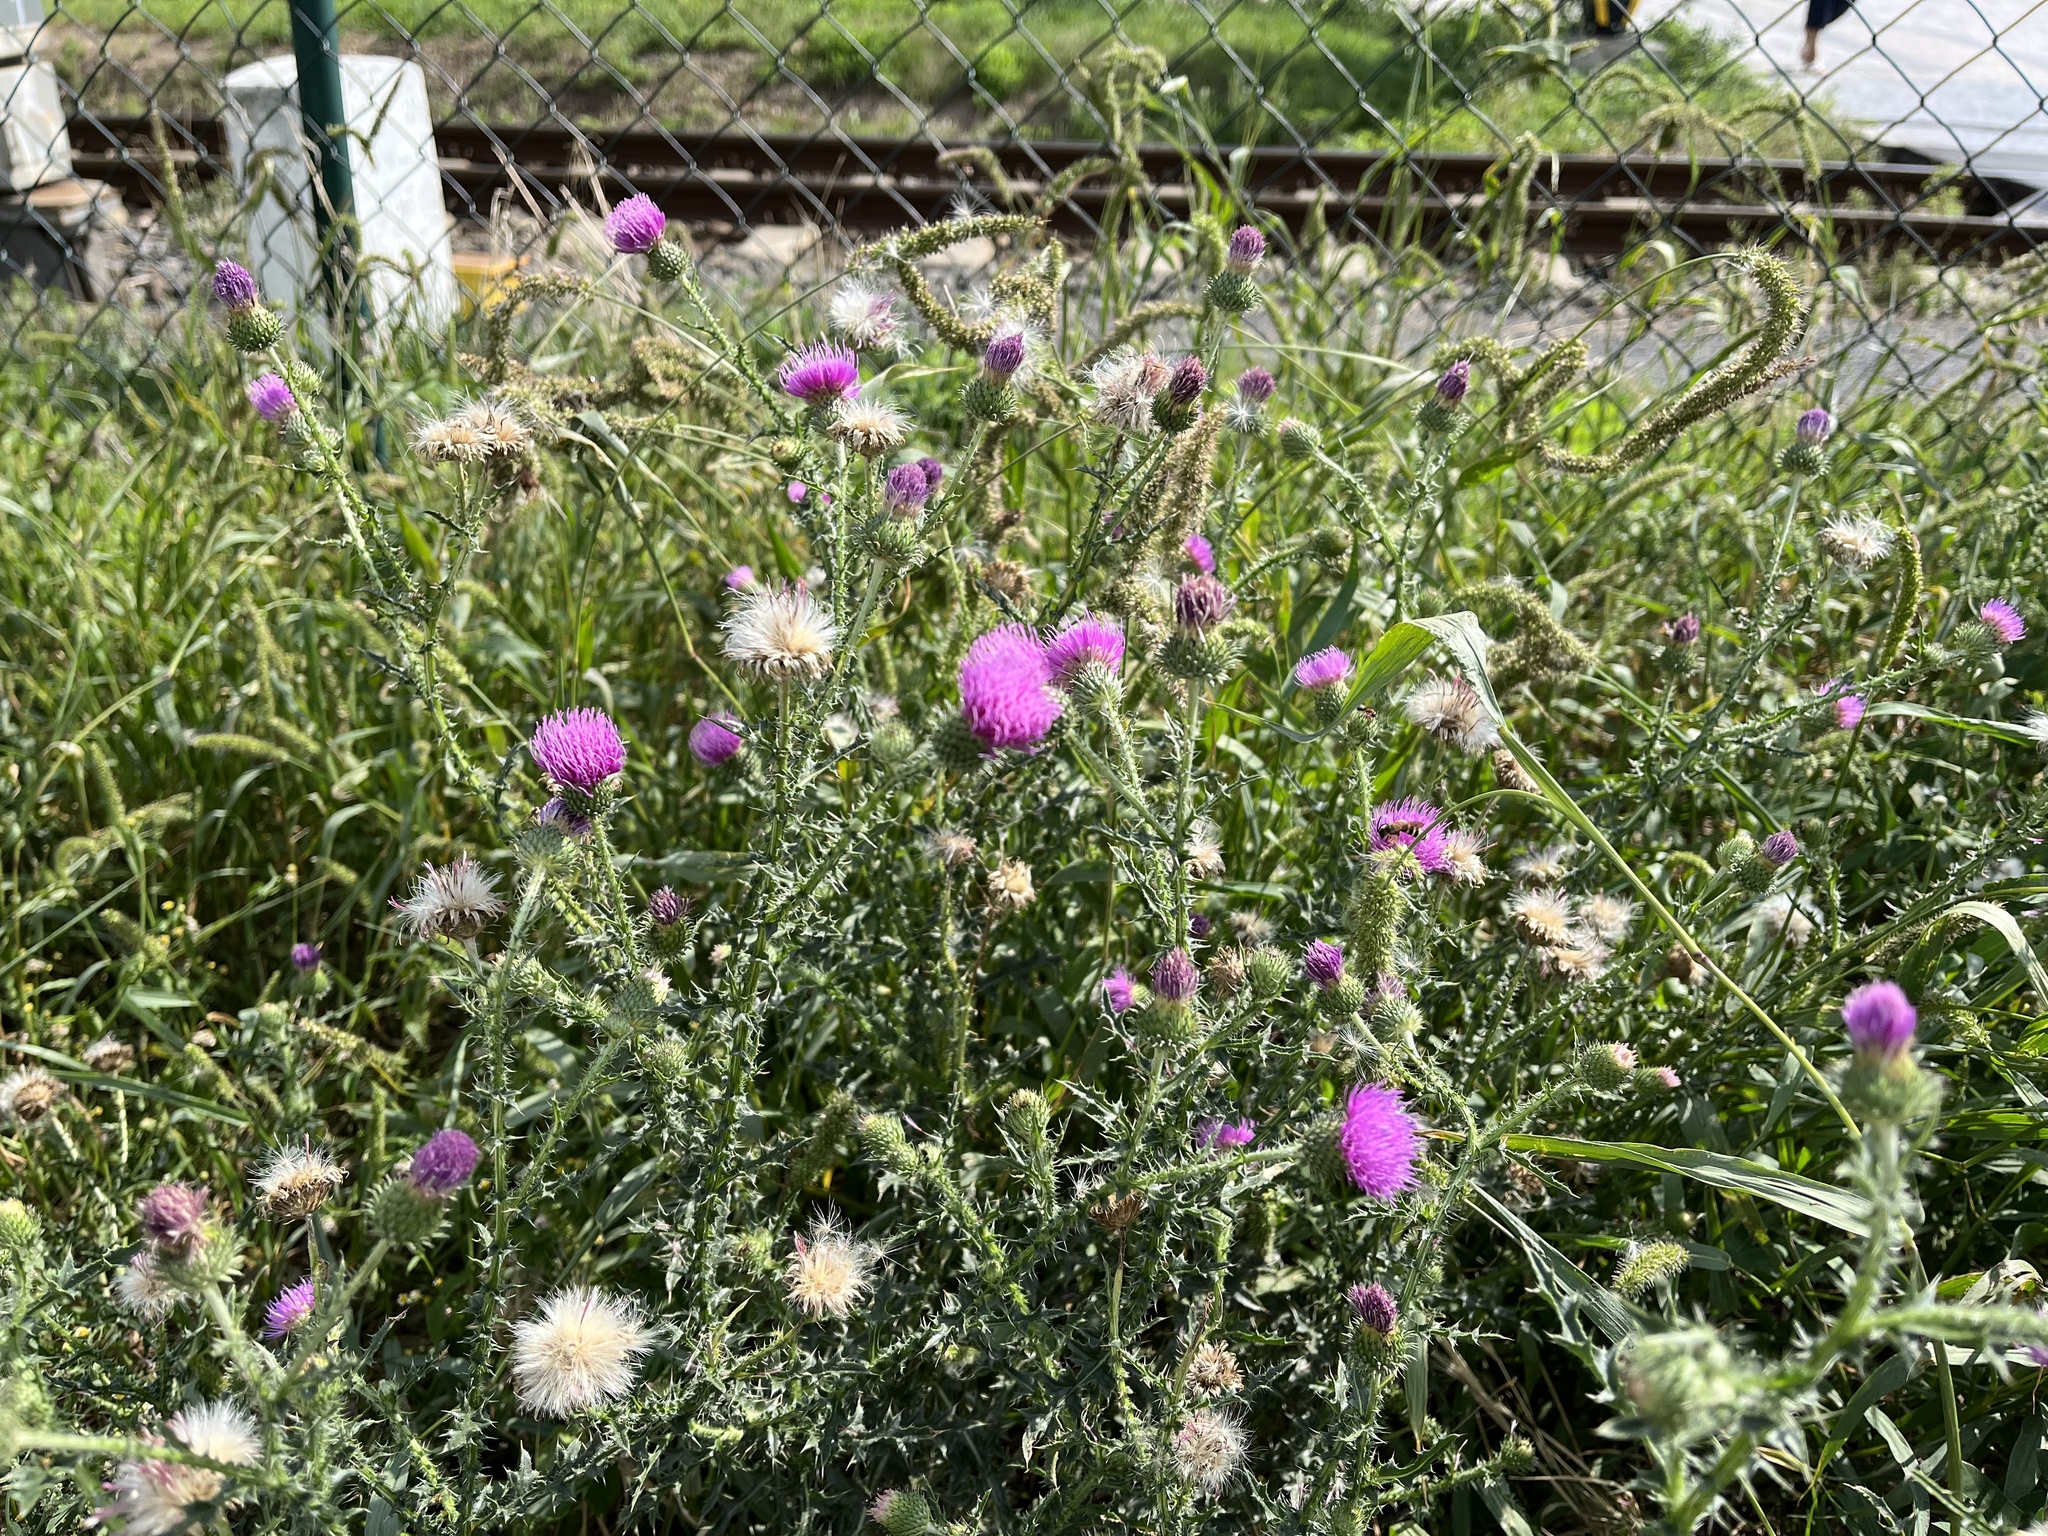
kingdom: Plantae
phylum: Tracheophyta
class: Magnoliopsida
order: Asterales
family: Asteraceae
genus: Carduus
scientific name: Carduus acanthoides
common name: Plumeless thistle
